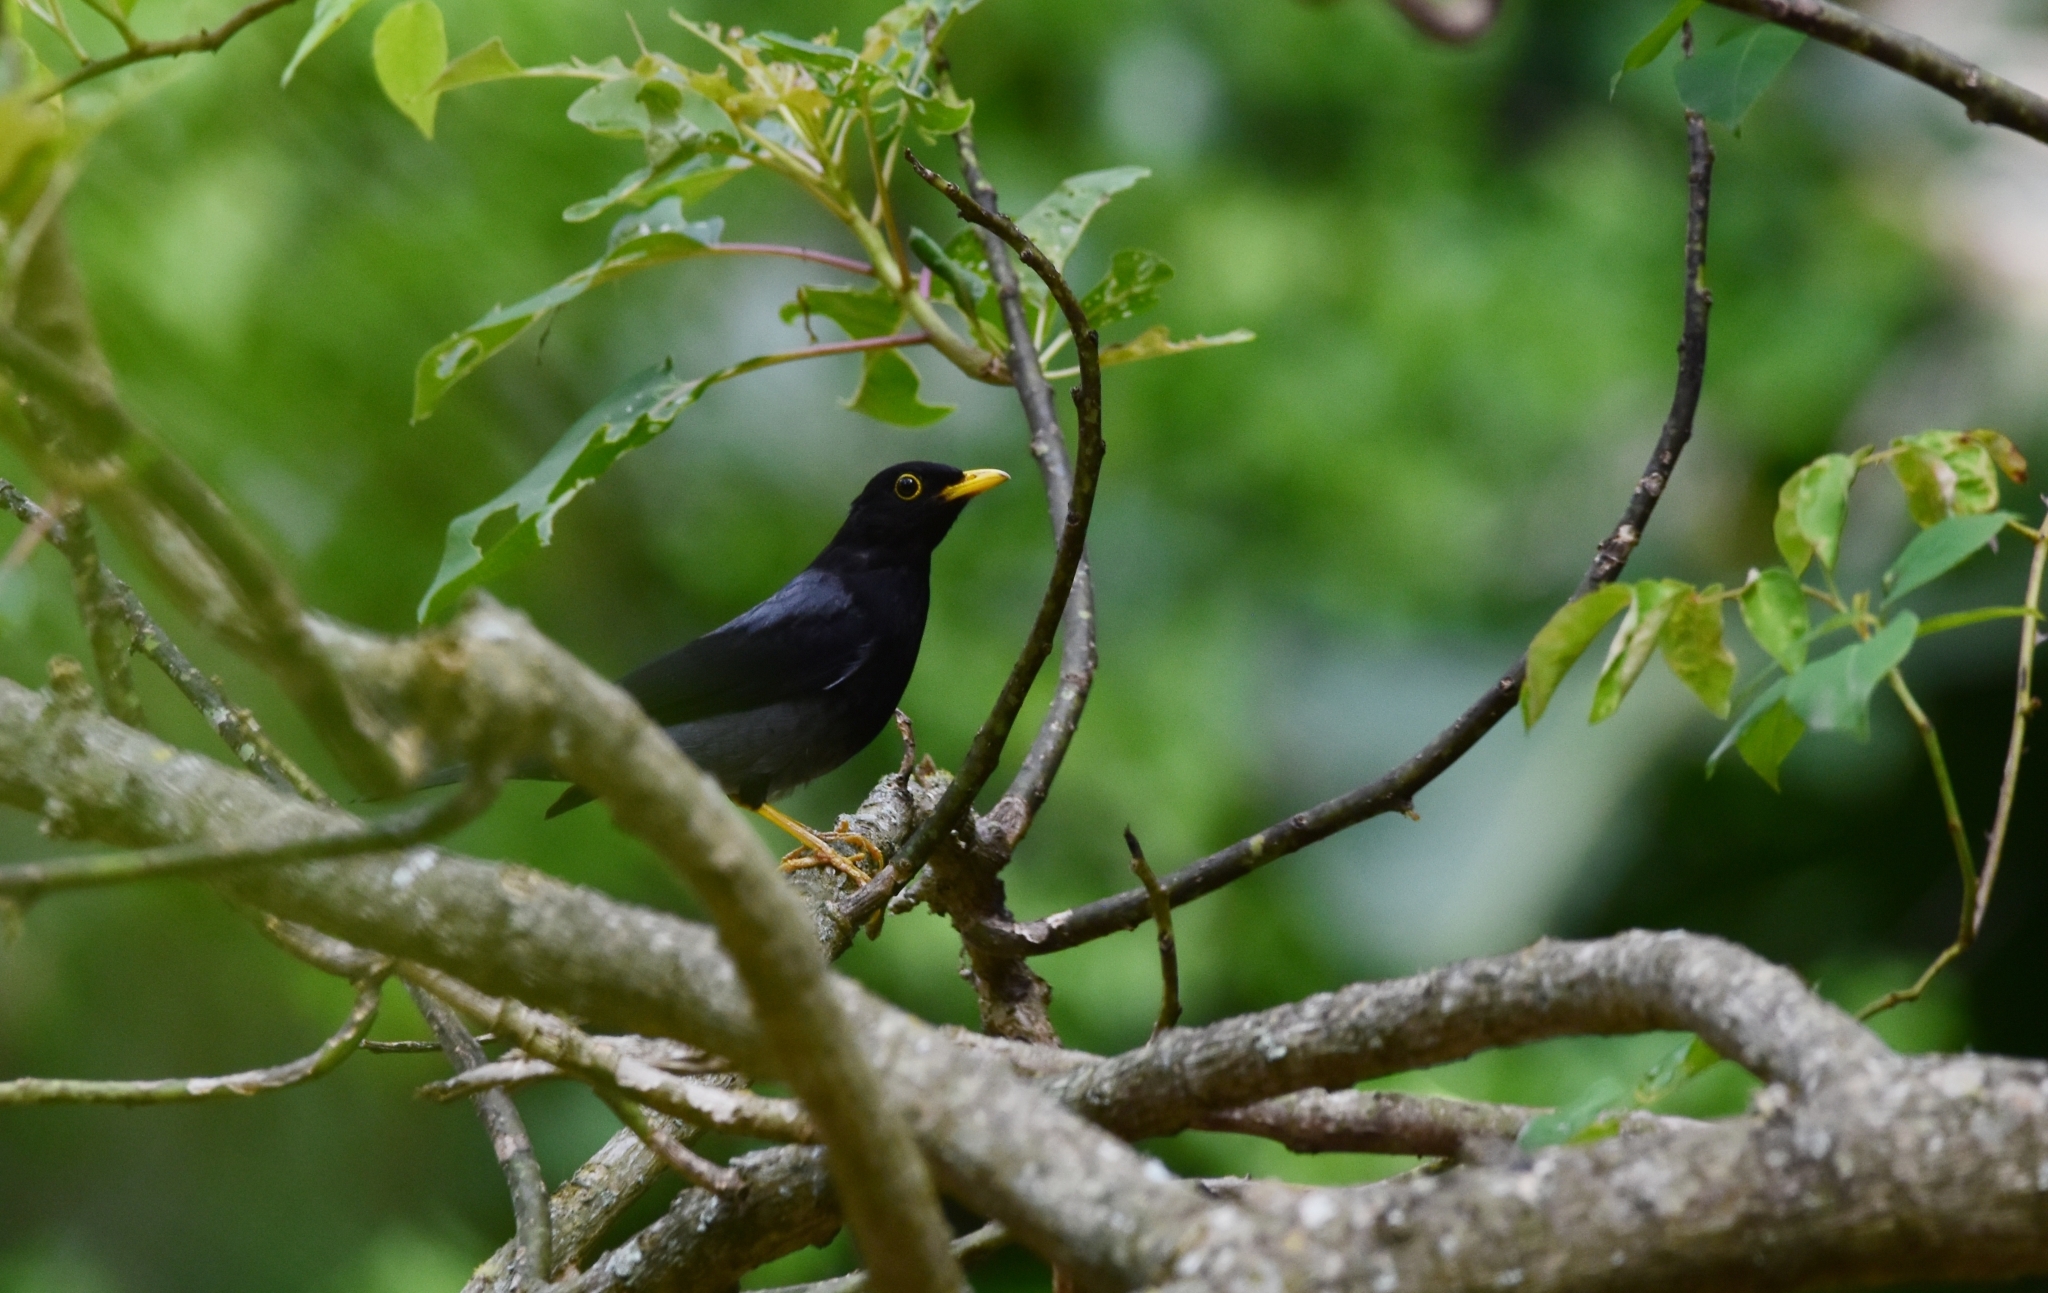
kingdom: Animalia
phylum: Chordata
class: Aves
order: Passeriformes
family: Turdidae
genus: Turdus
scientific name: Turdus flavipes
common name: Yellow-legged thrush
